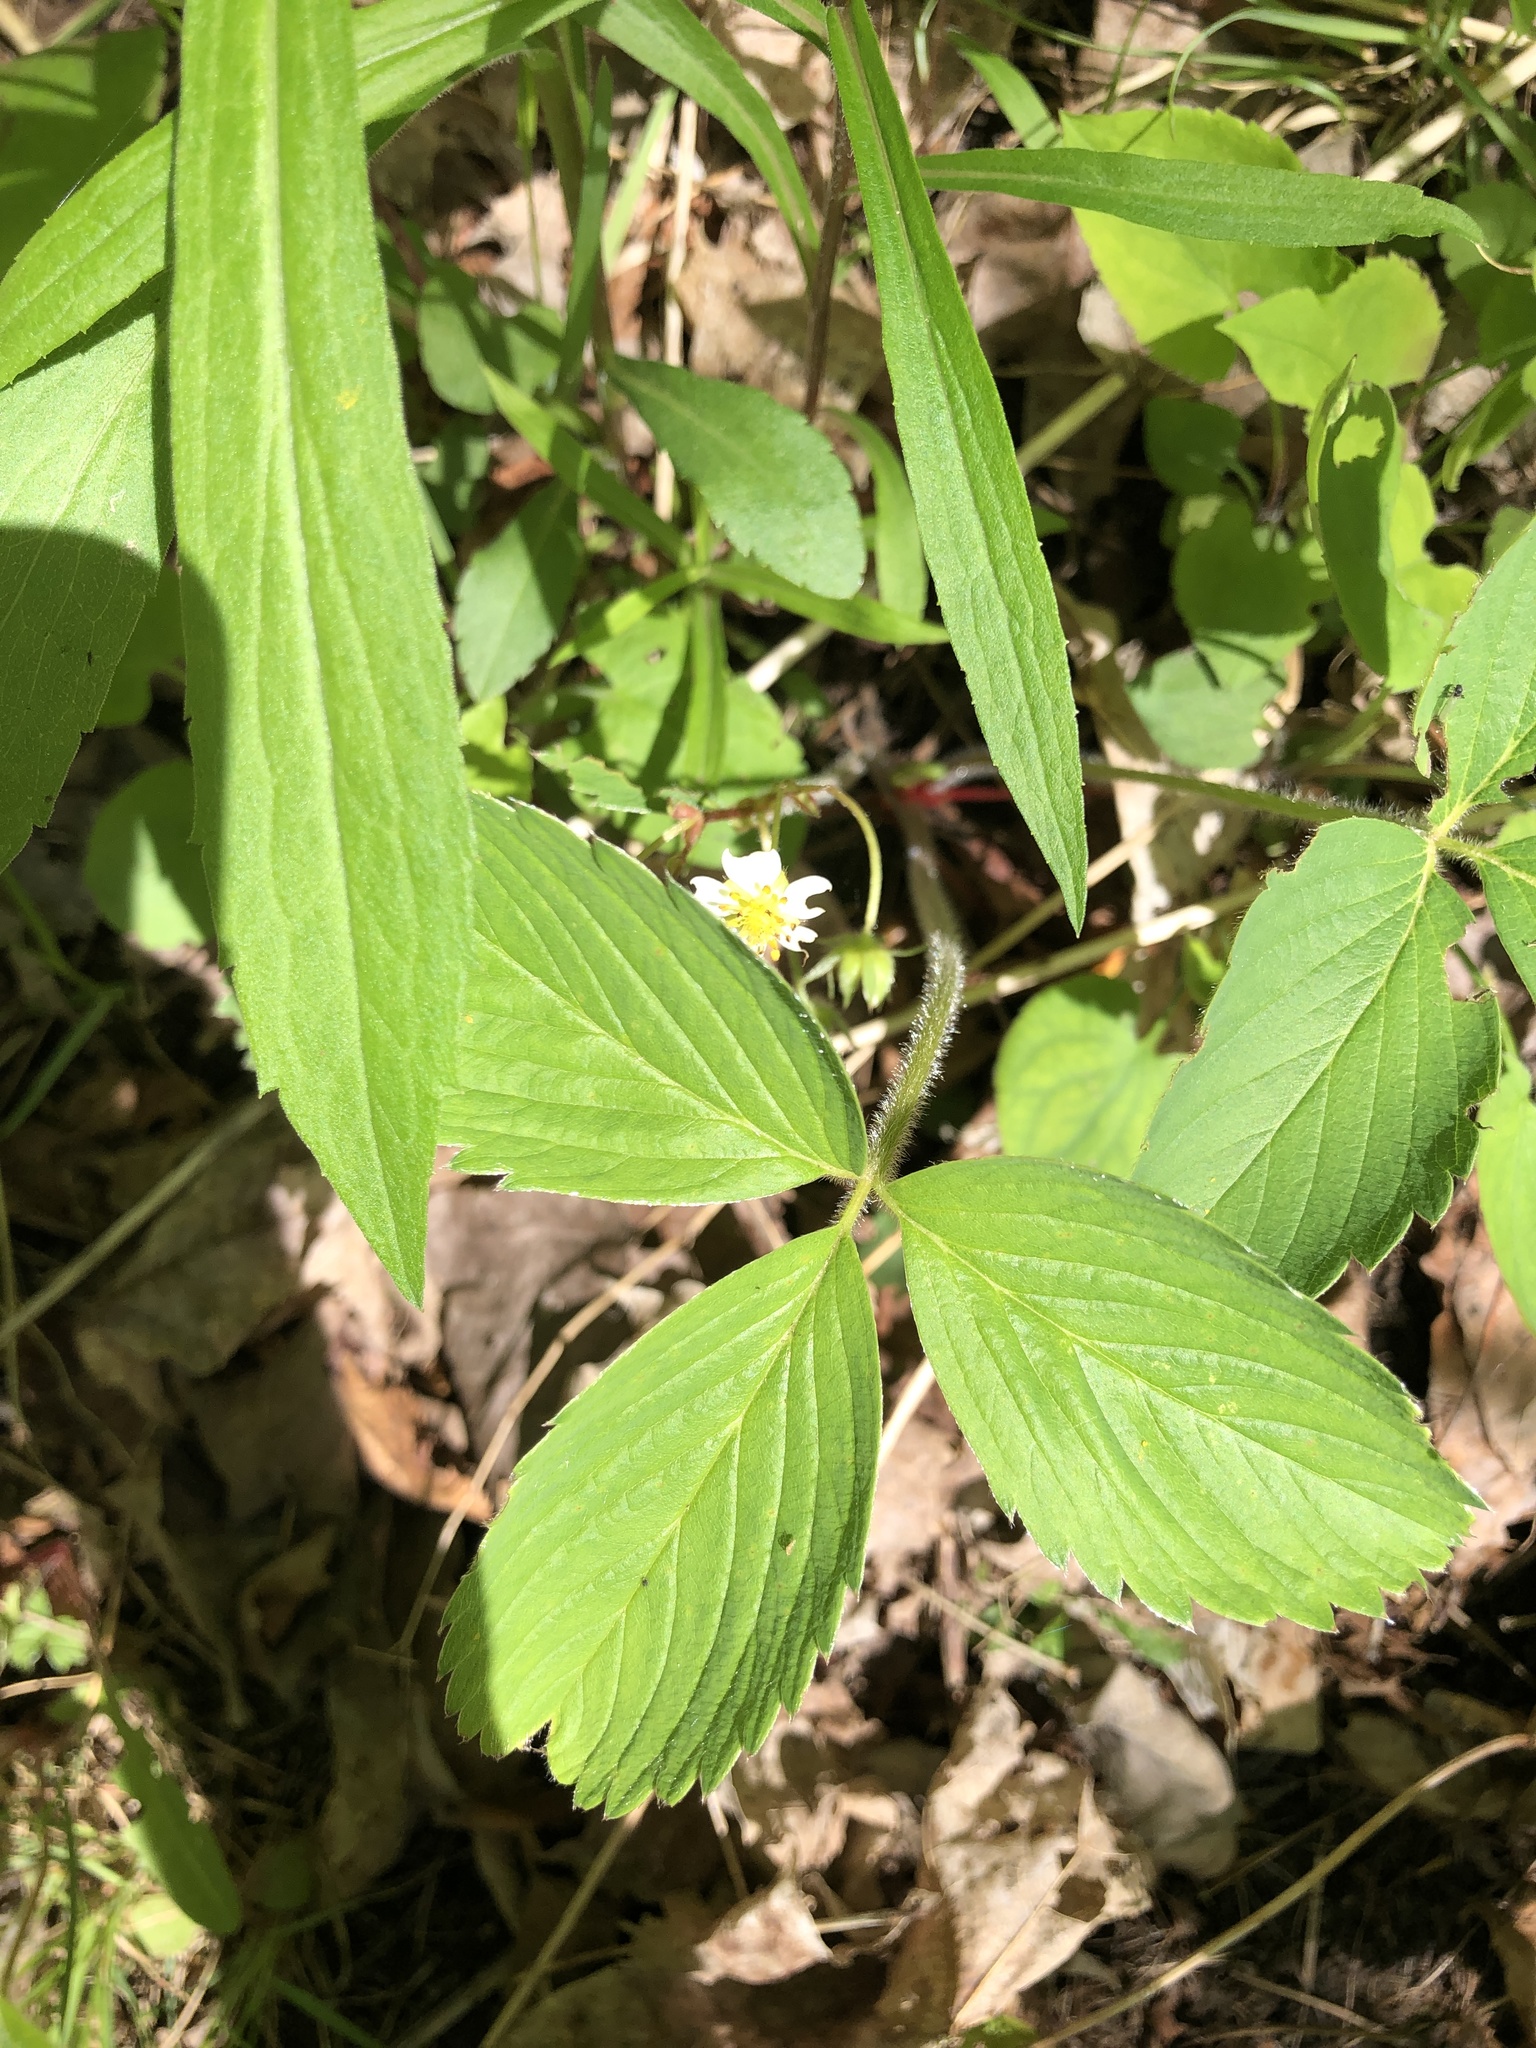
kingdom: Plantae
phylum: Tracheophyta
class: Magnoliopsida
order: Rosales
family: Rosaceae
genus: Fragaria
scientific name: Fragaria virginiana
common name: Thickleaved wild strawberry
